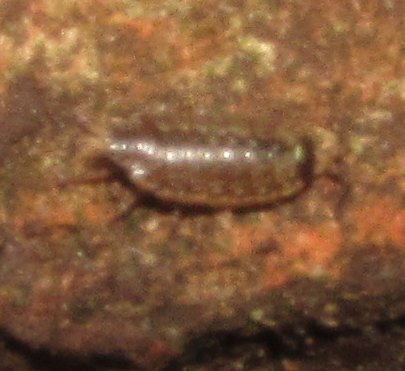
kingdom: Animalia
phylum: Arthropoda
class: Malacostraca
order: Isopoda
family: Philosciidae
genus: Philoscia
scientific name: Philoscia muscorum
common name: Common striped woodlouse
